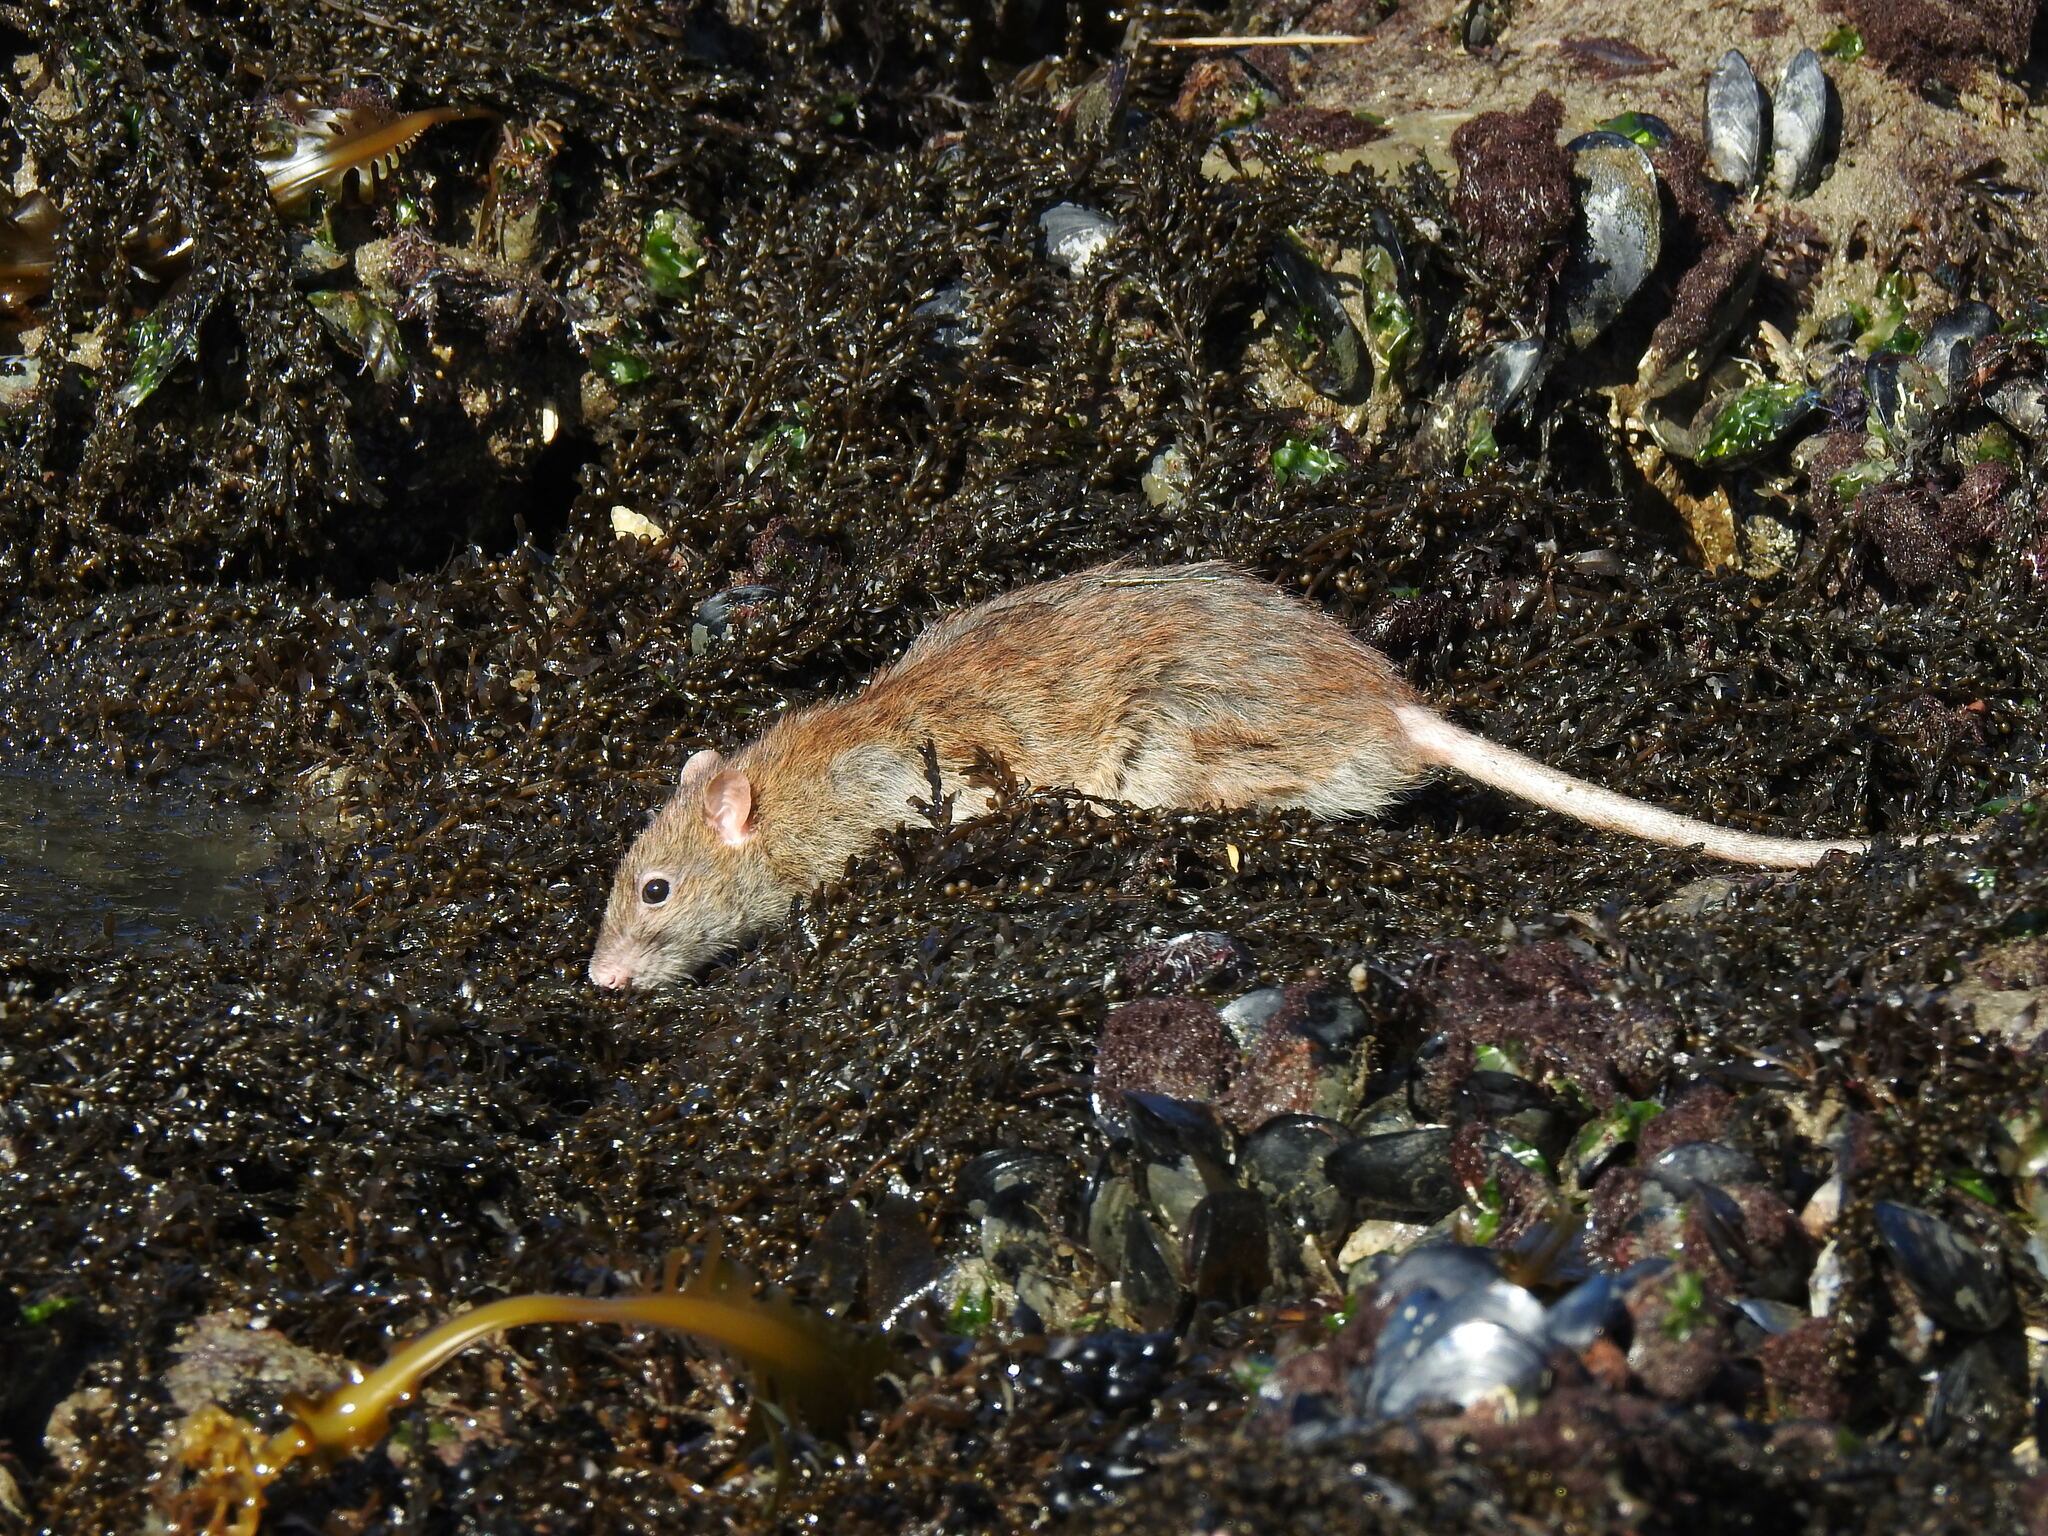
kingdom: Animalia
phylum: Chordata
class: Mammalia
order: Rodentia
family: Muridae
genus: Rattus
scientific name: Rattus norvegicus
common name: Brown rat
